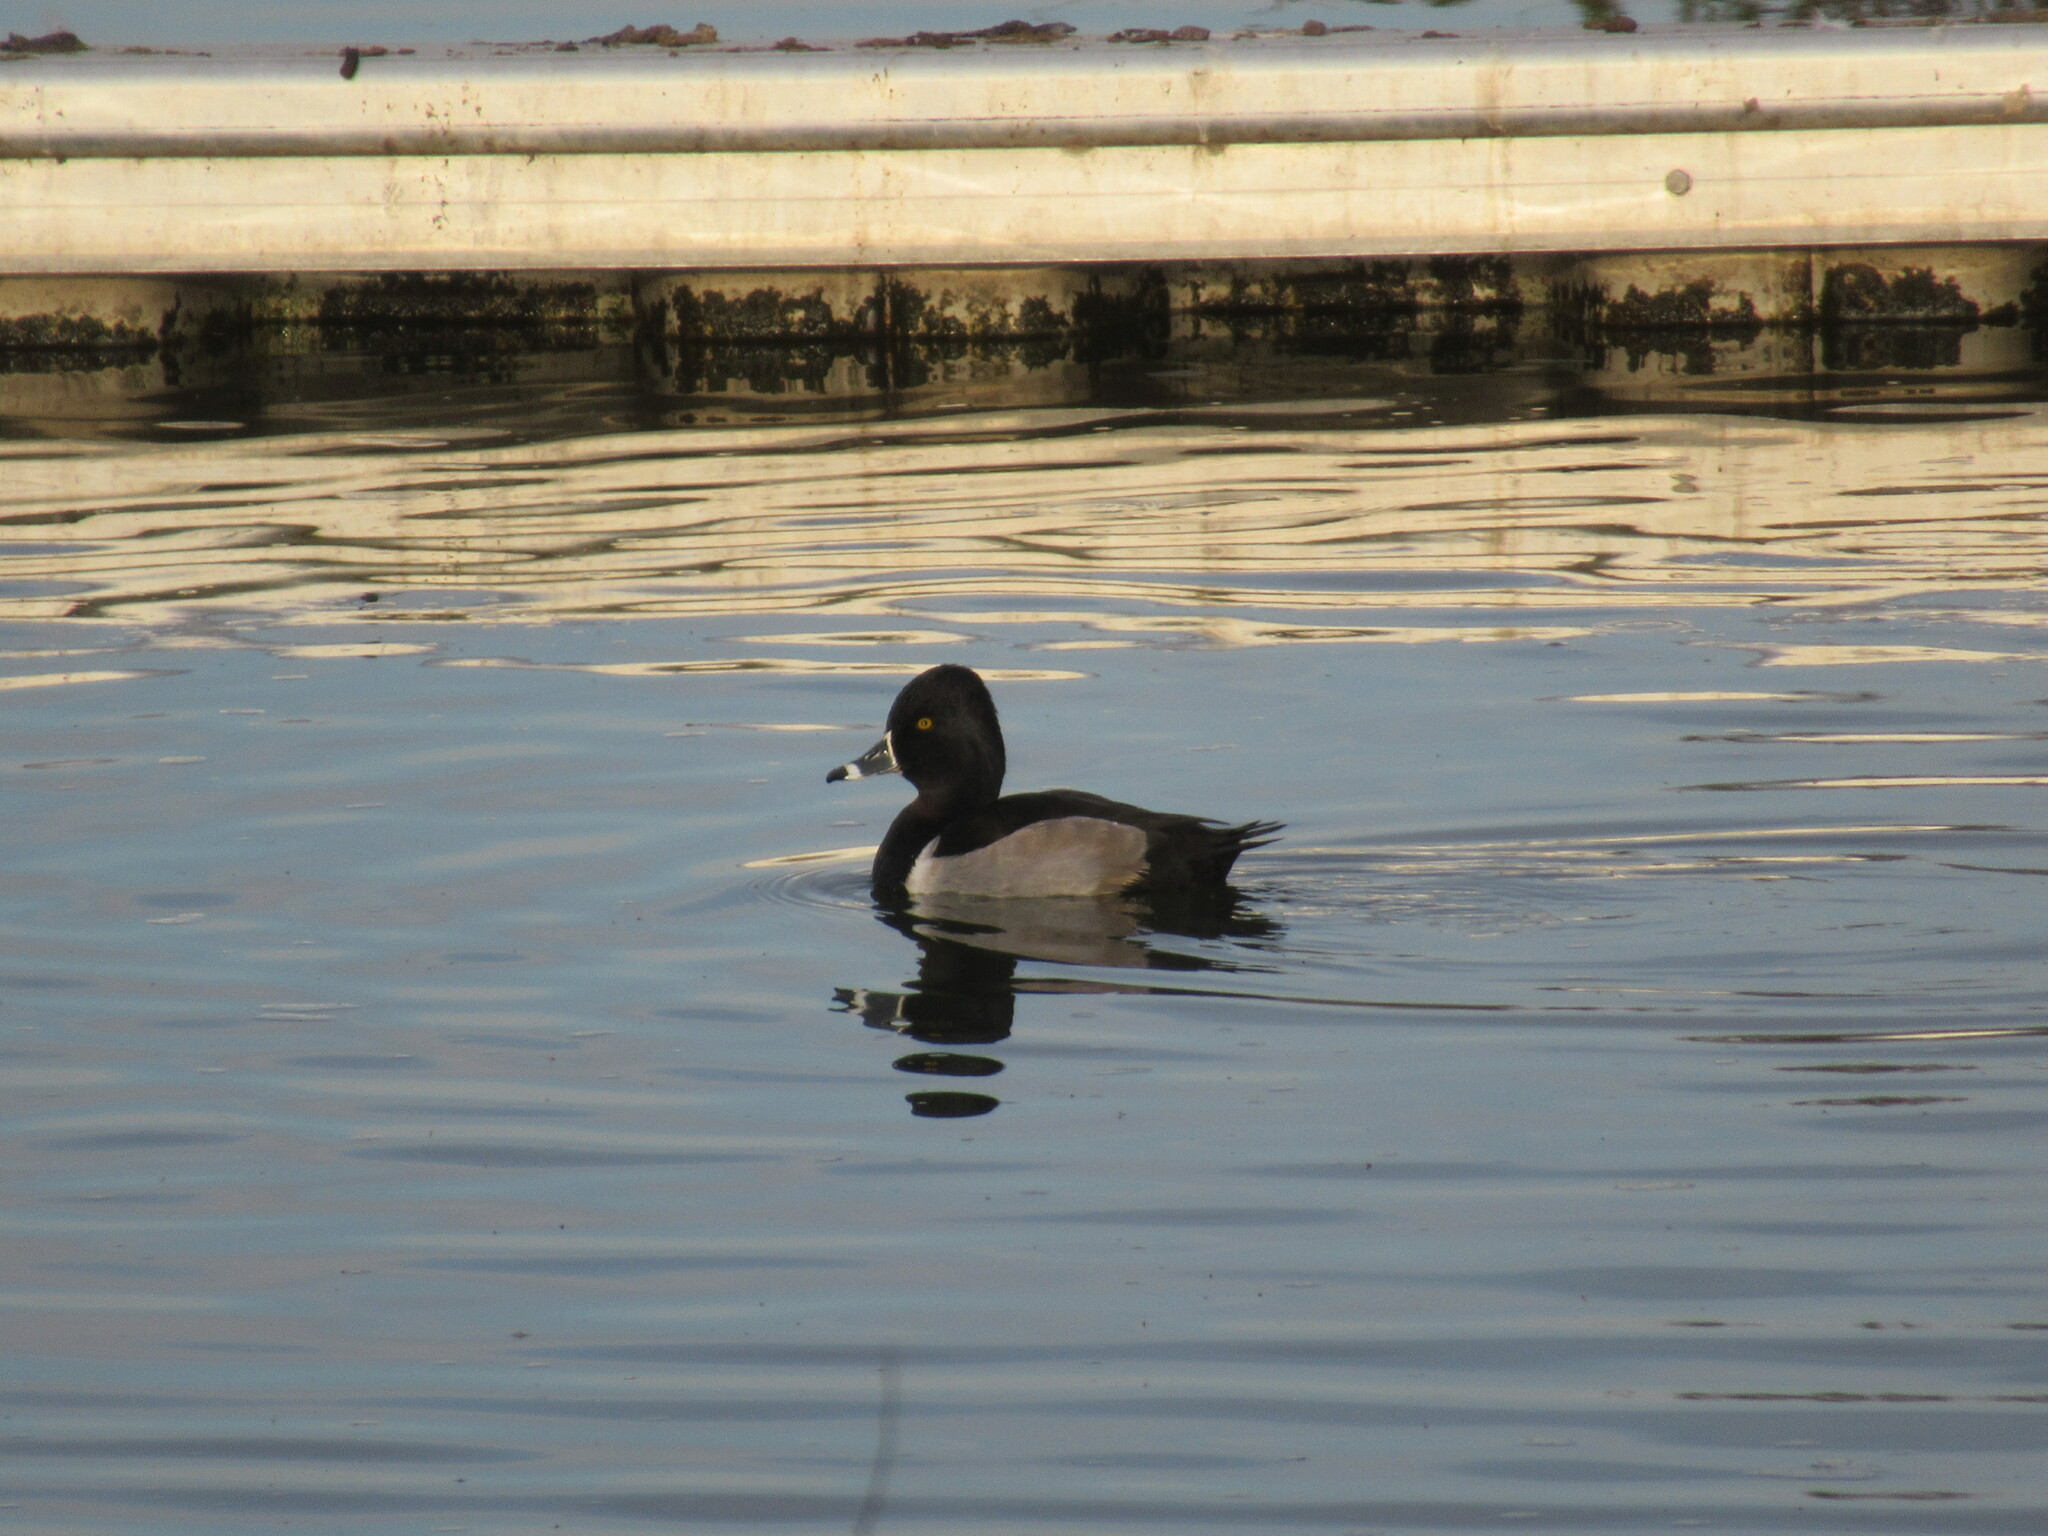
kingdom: Animalia
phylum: Chordata
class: Aves
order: Anseriformes
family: Anatidae
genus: Aythya
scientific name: Aythya collaris
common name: Ring-necked duck
